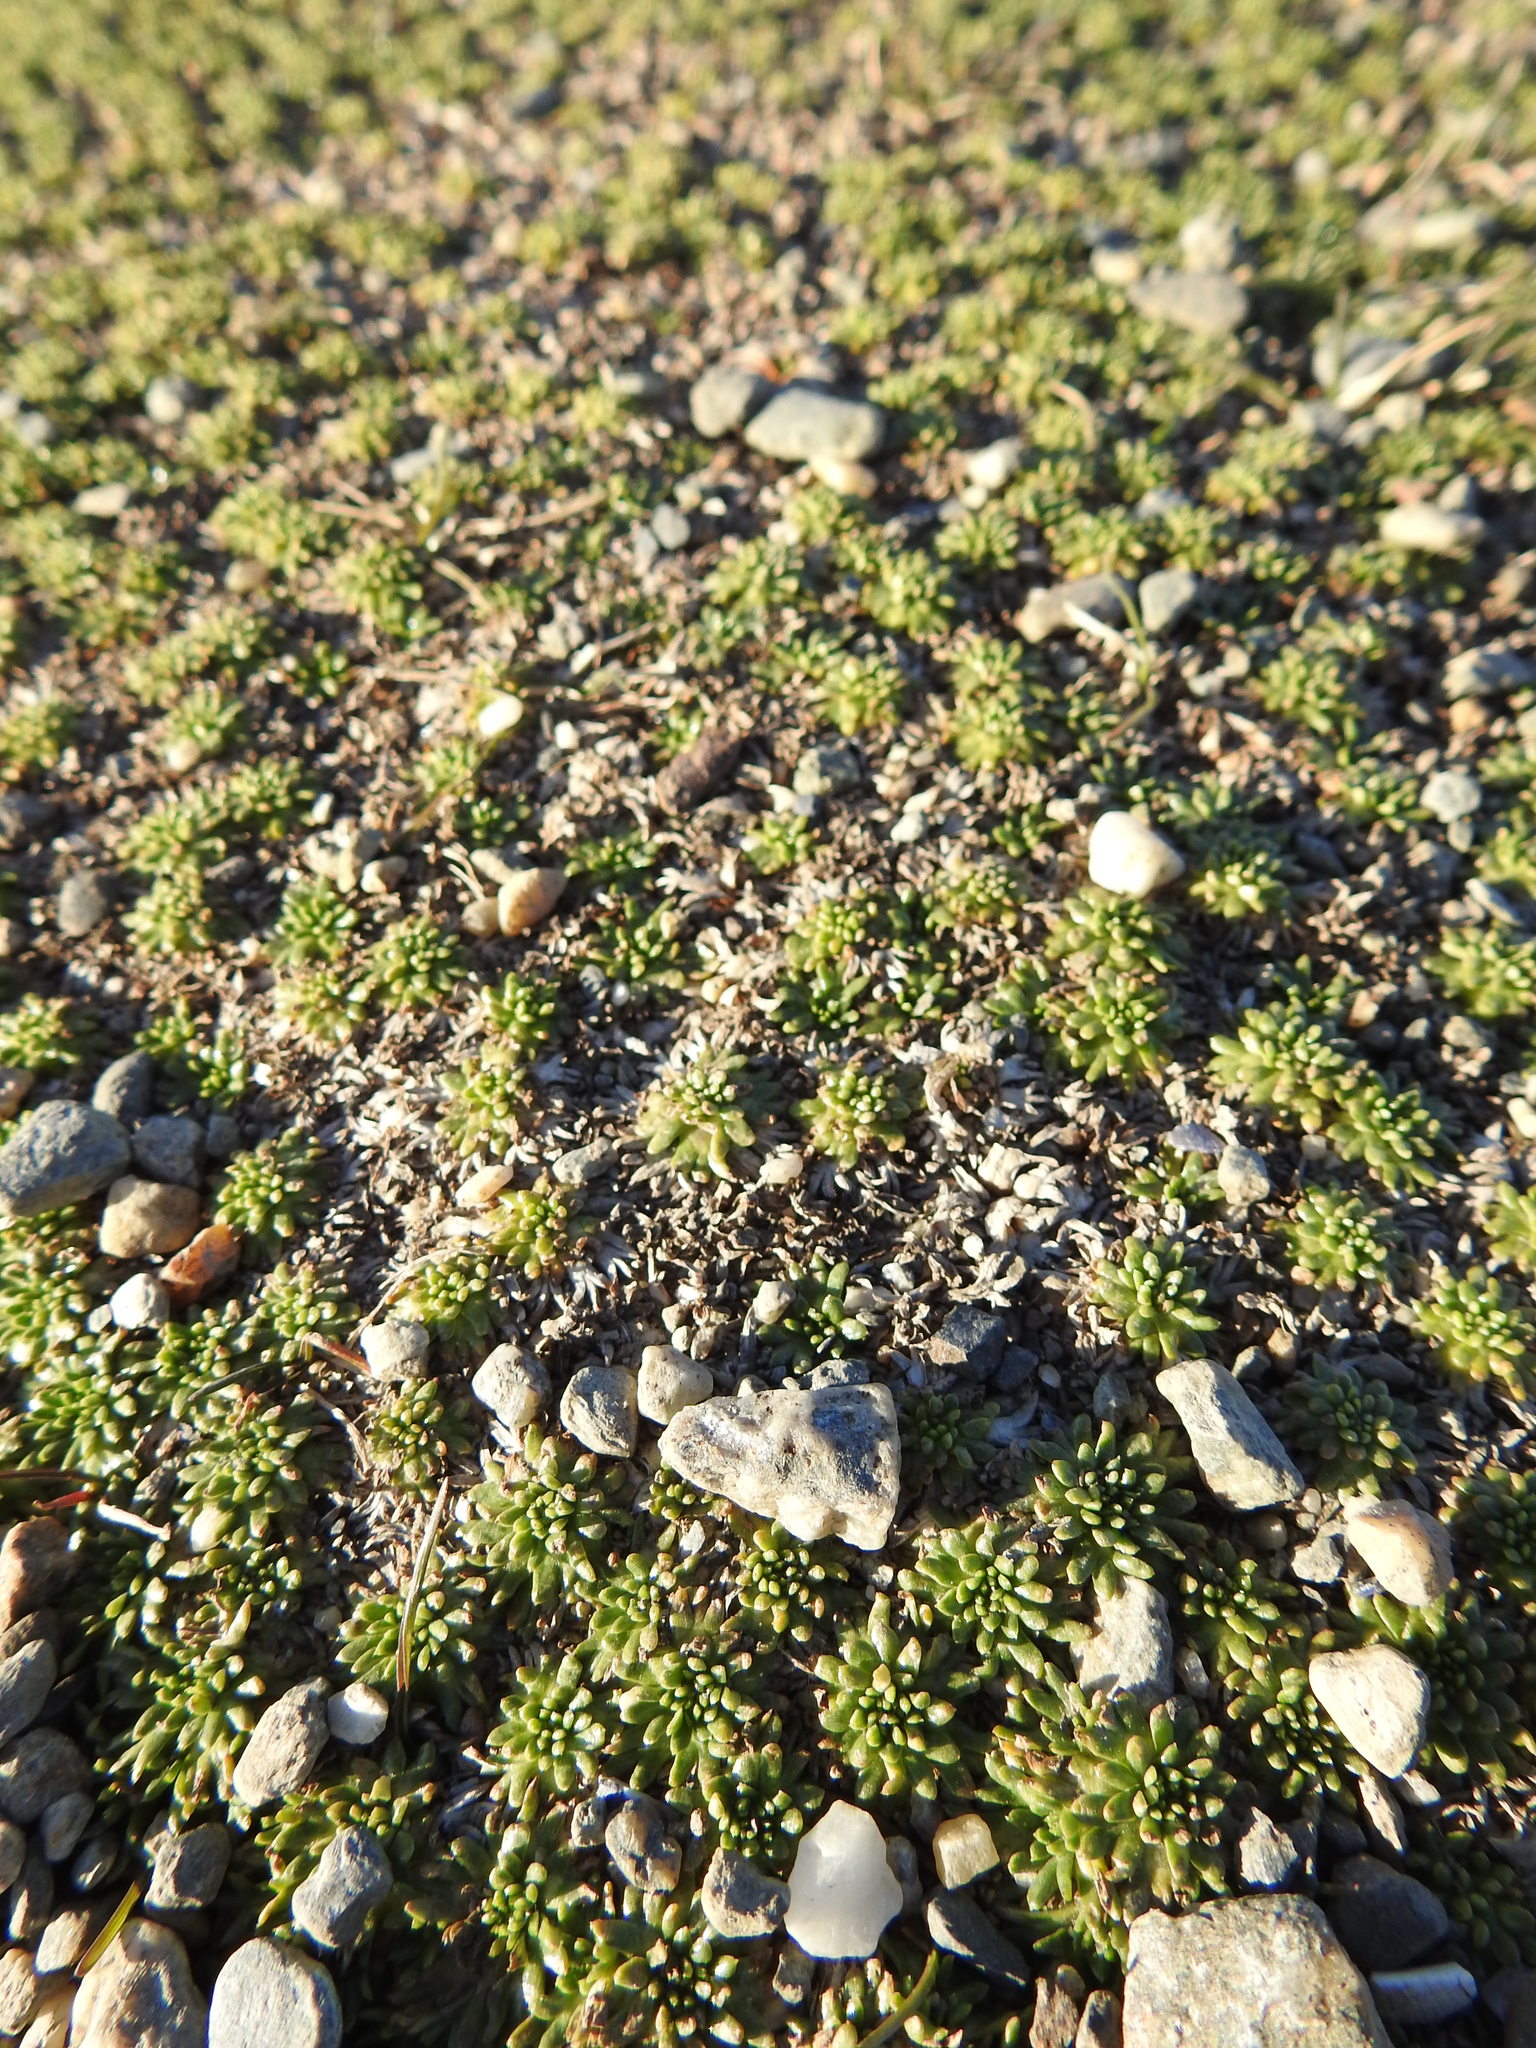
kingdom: Plantae
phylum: Tracheophyta
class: Magnoliopsida
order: Apiales
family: Apiaceae
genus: Azorella
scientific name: Azorella trifurcata
